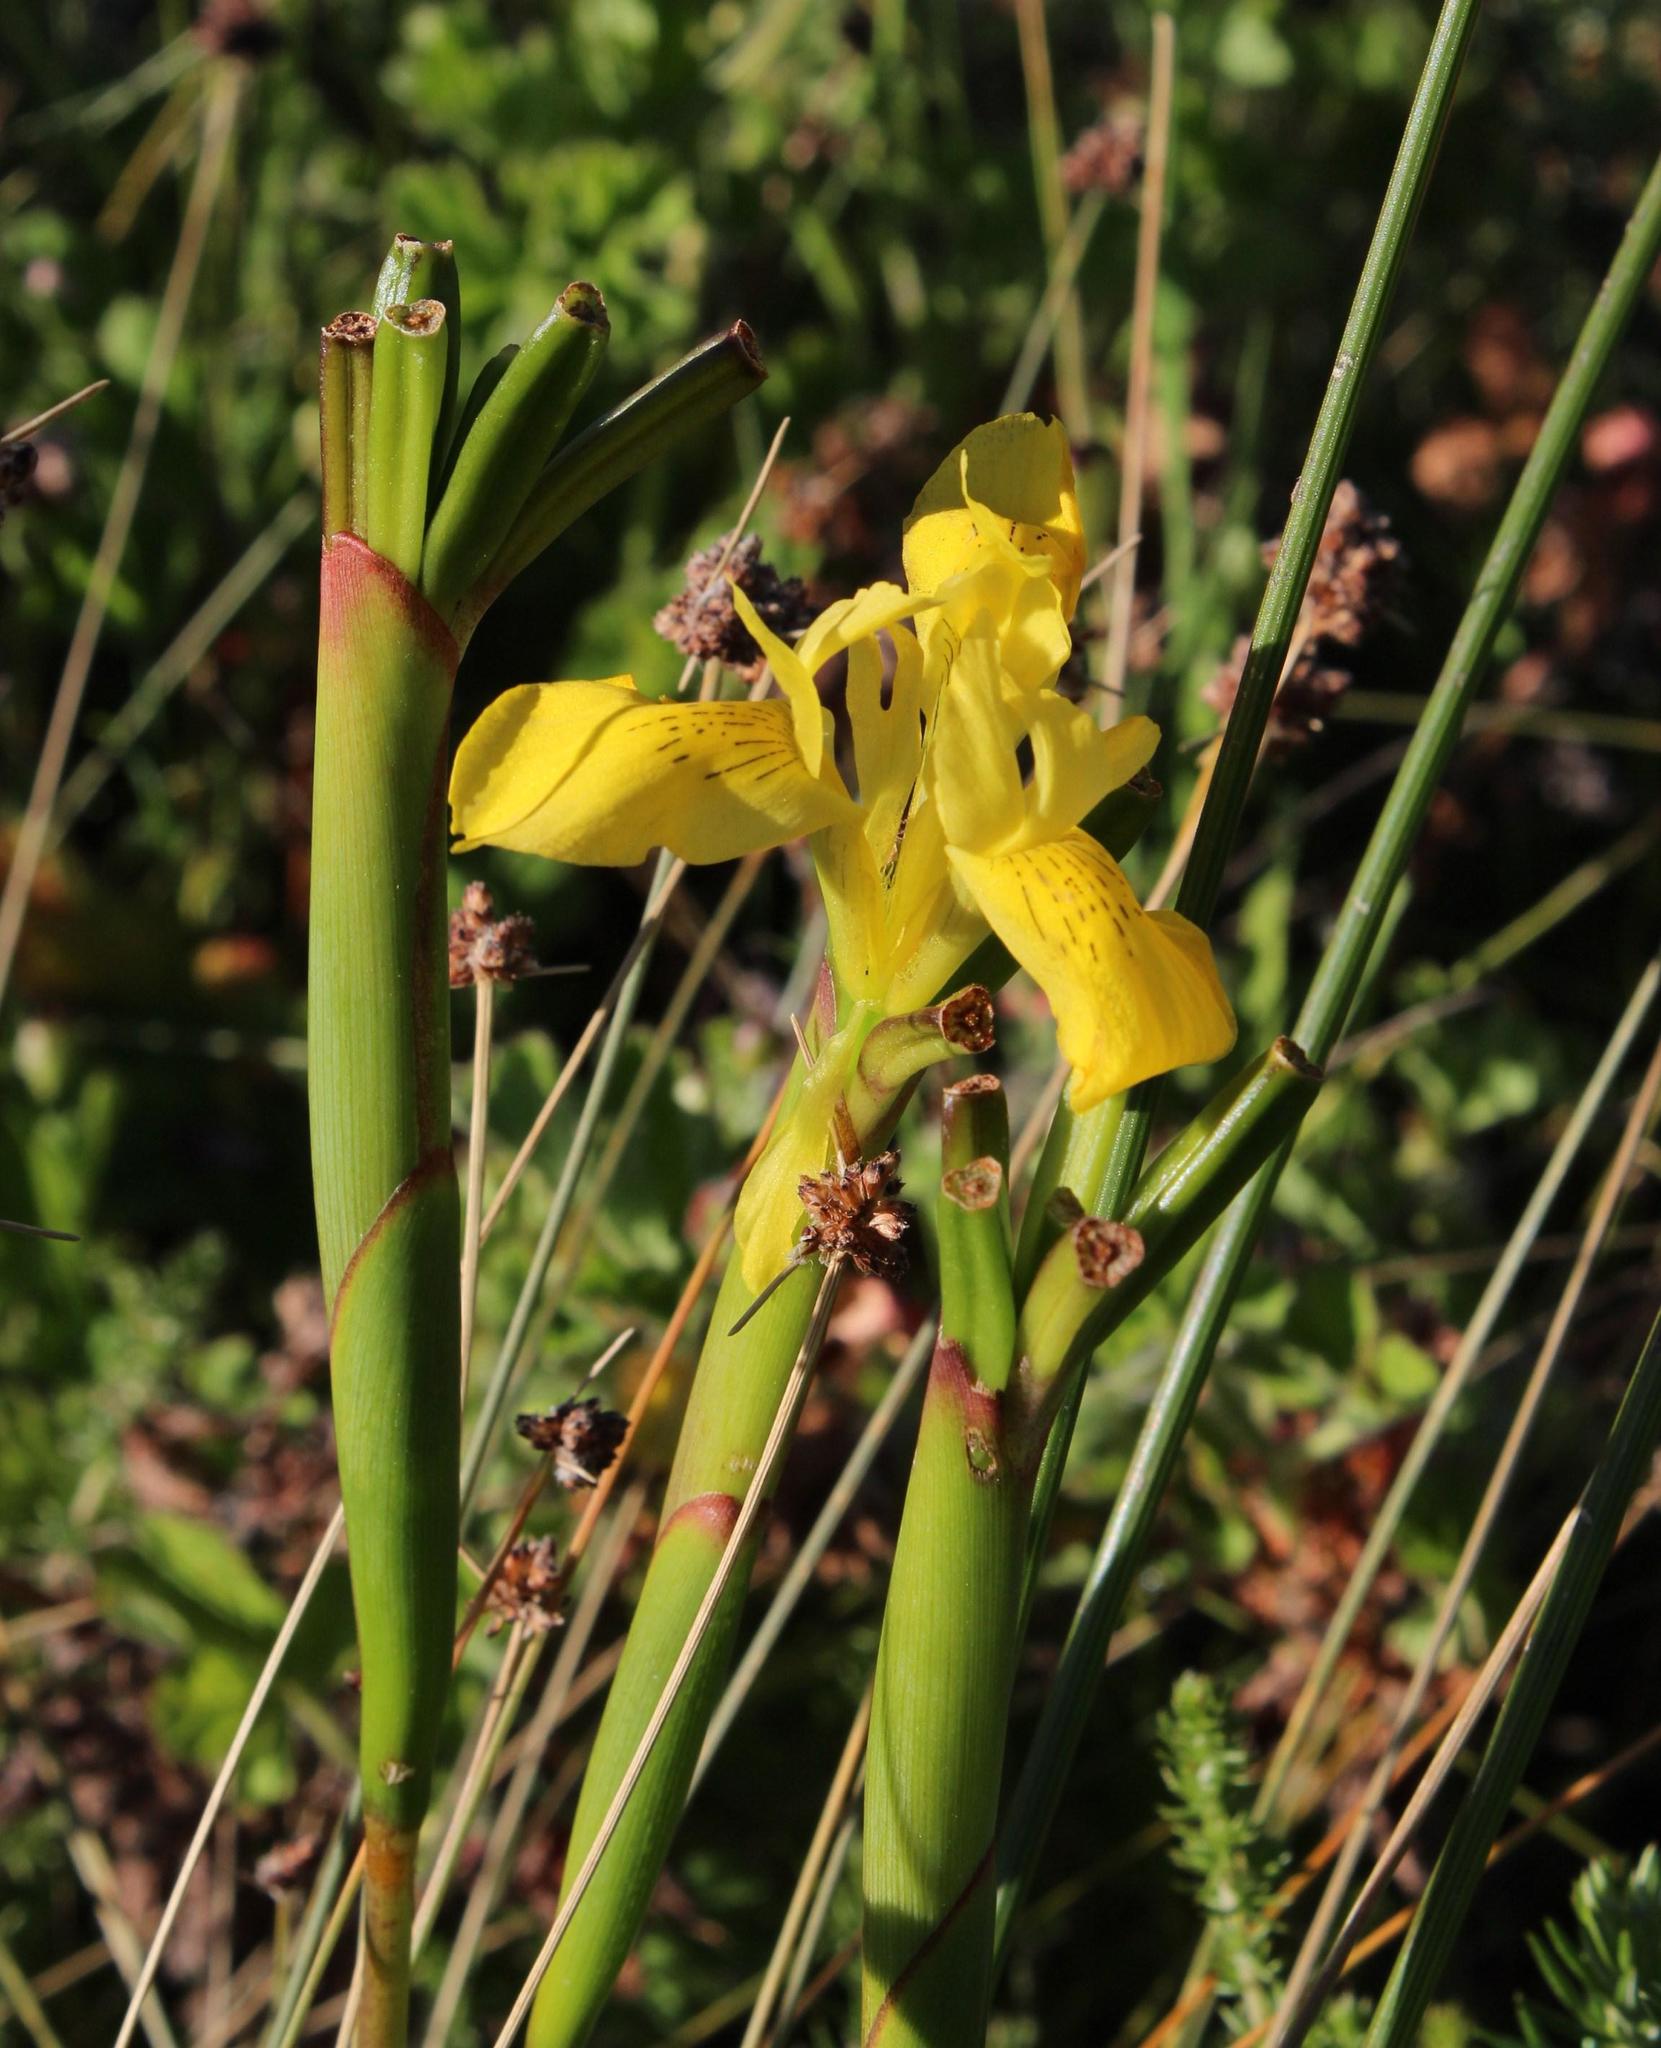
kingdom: Plantae
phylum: Tracheophyta
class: Liliopsida
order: Asparagales
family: Iridaceae
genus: Moraea
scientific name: Moraea neglecta
